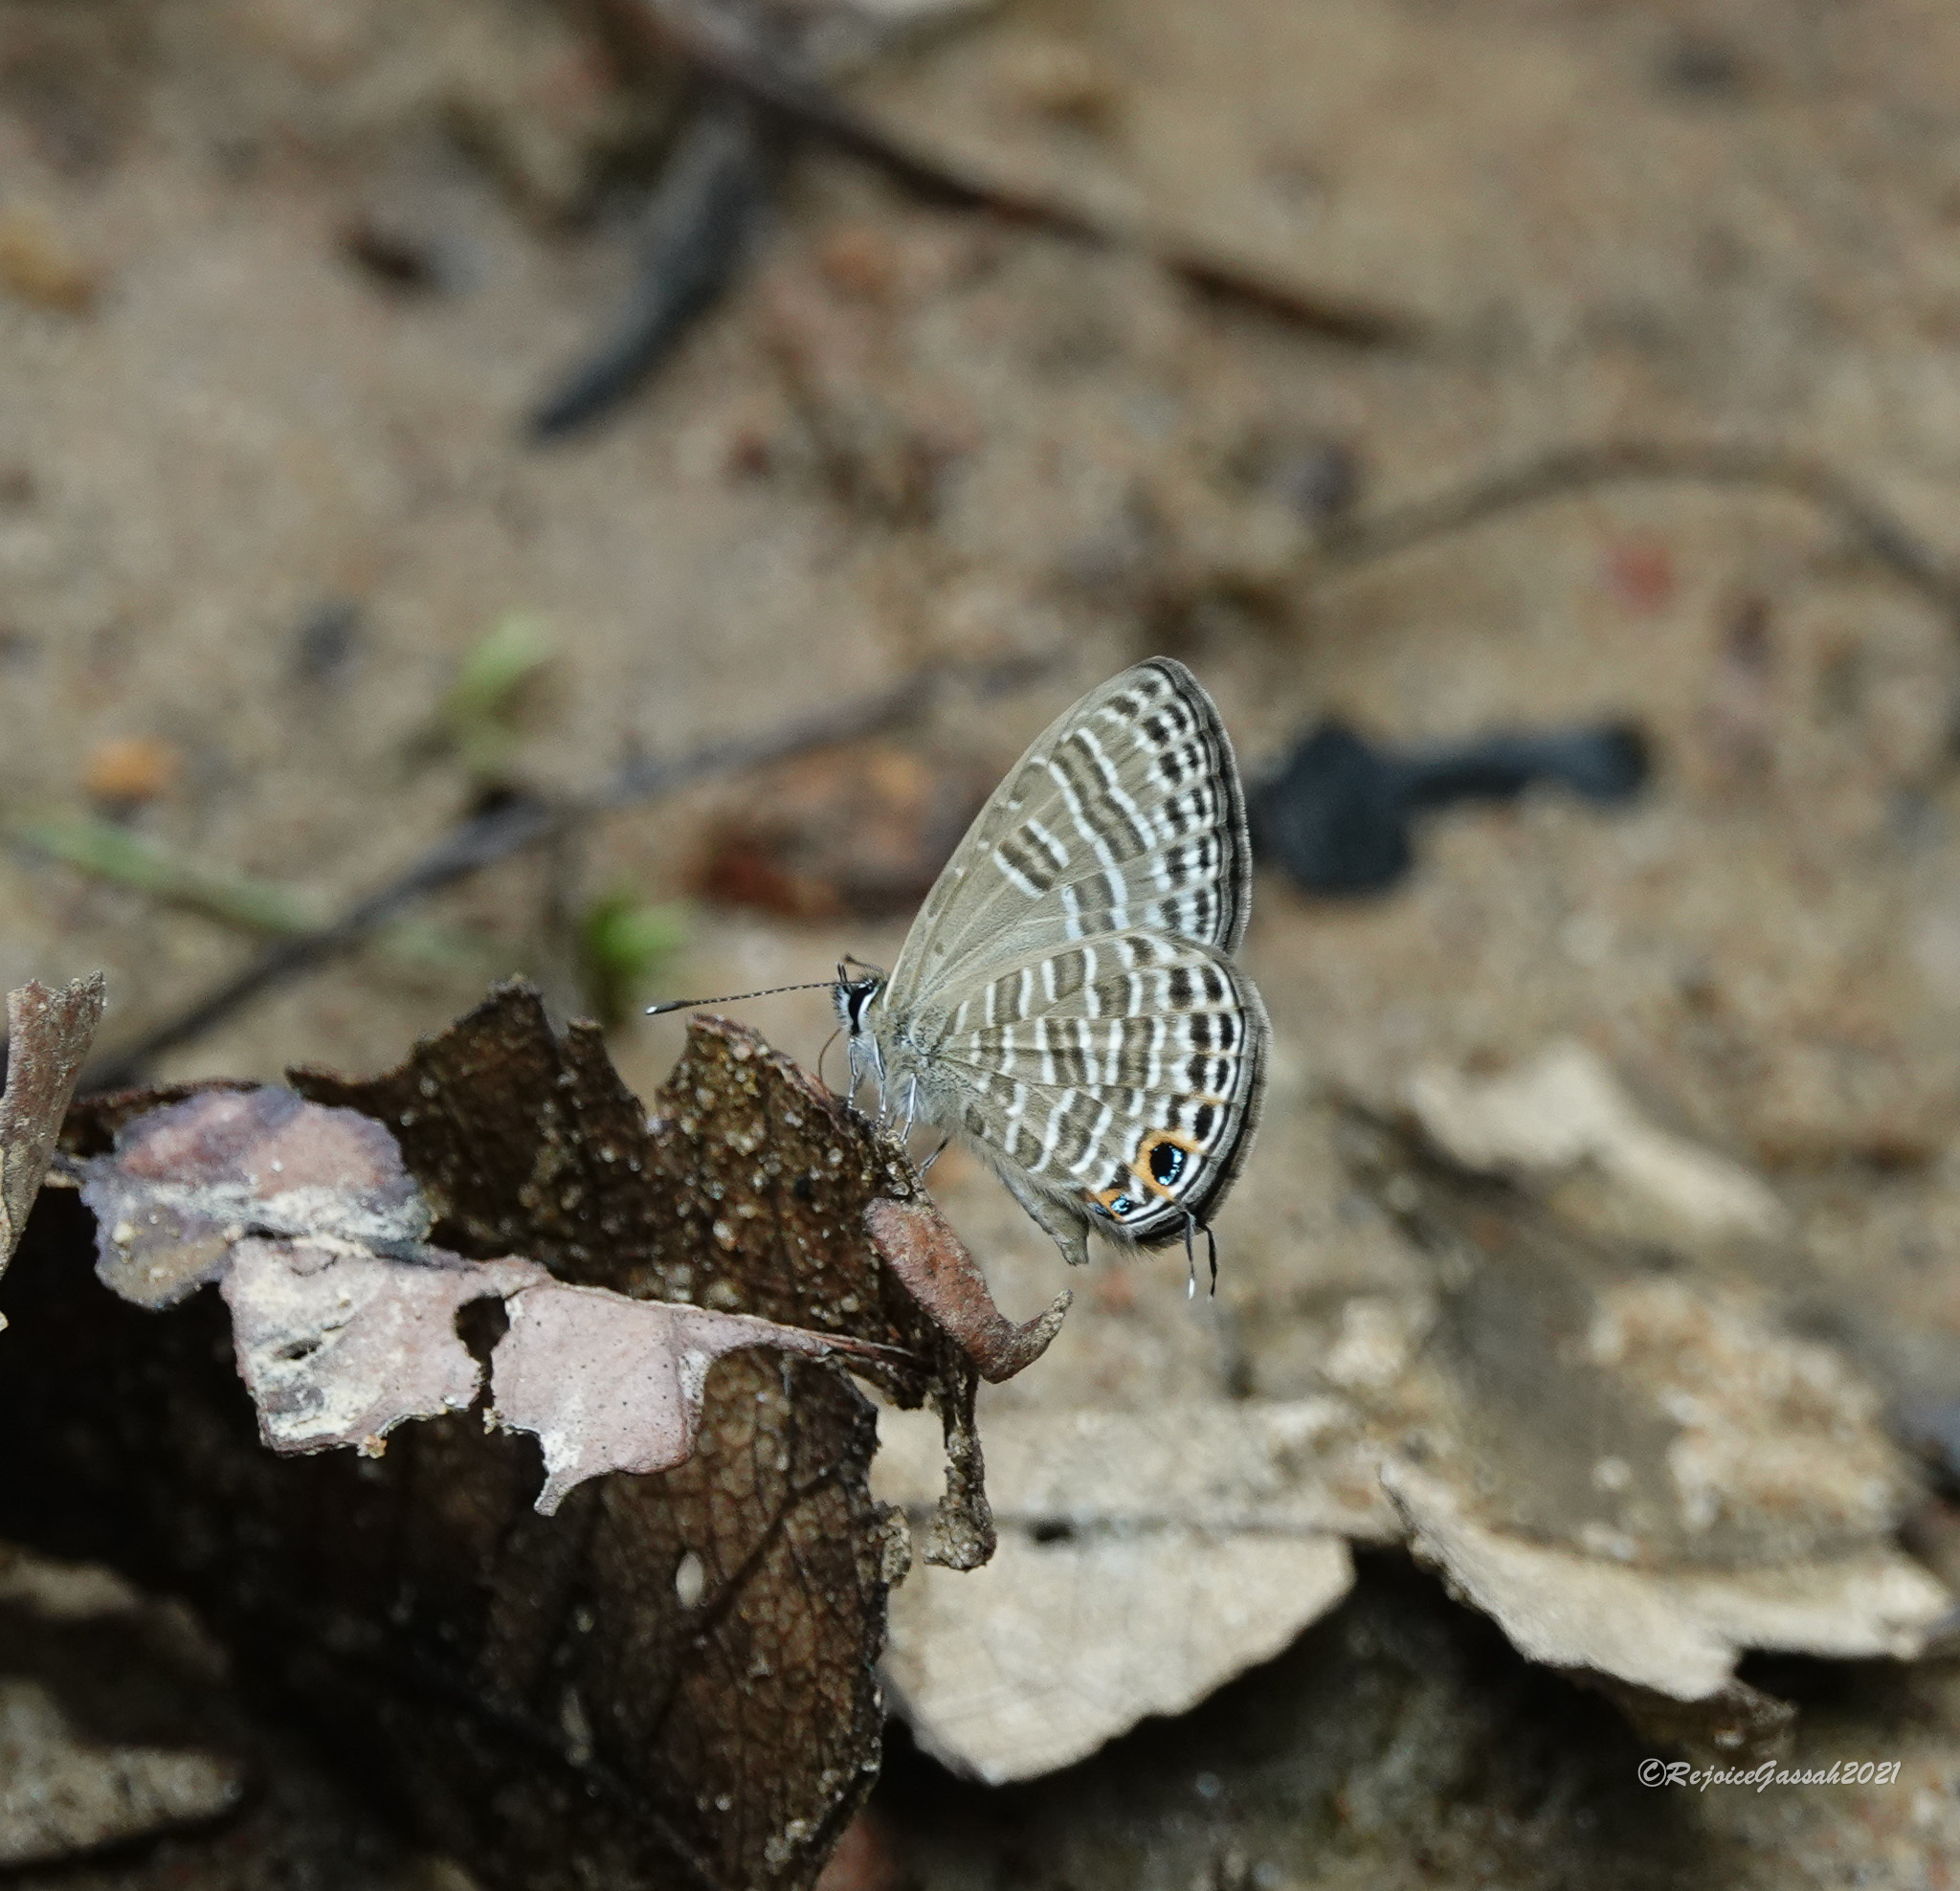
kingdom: Animalia
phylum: Arthropoda
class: Insecta
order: Lepidoptera
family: Lycaenidae
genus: Nacaduba
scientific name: Nacaduba pactolus
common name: Large fourline blue
